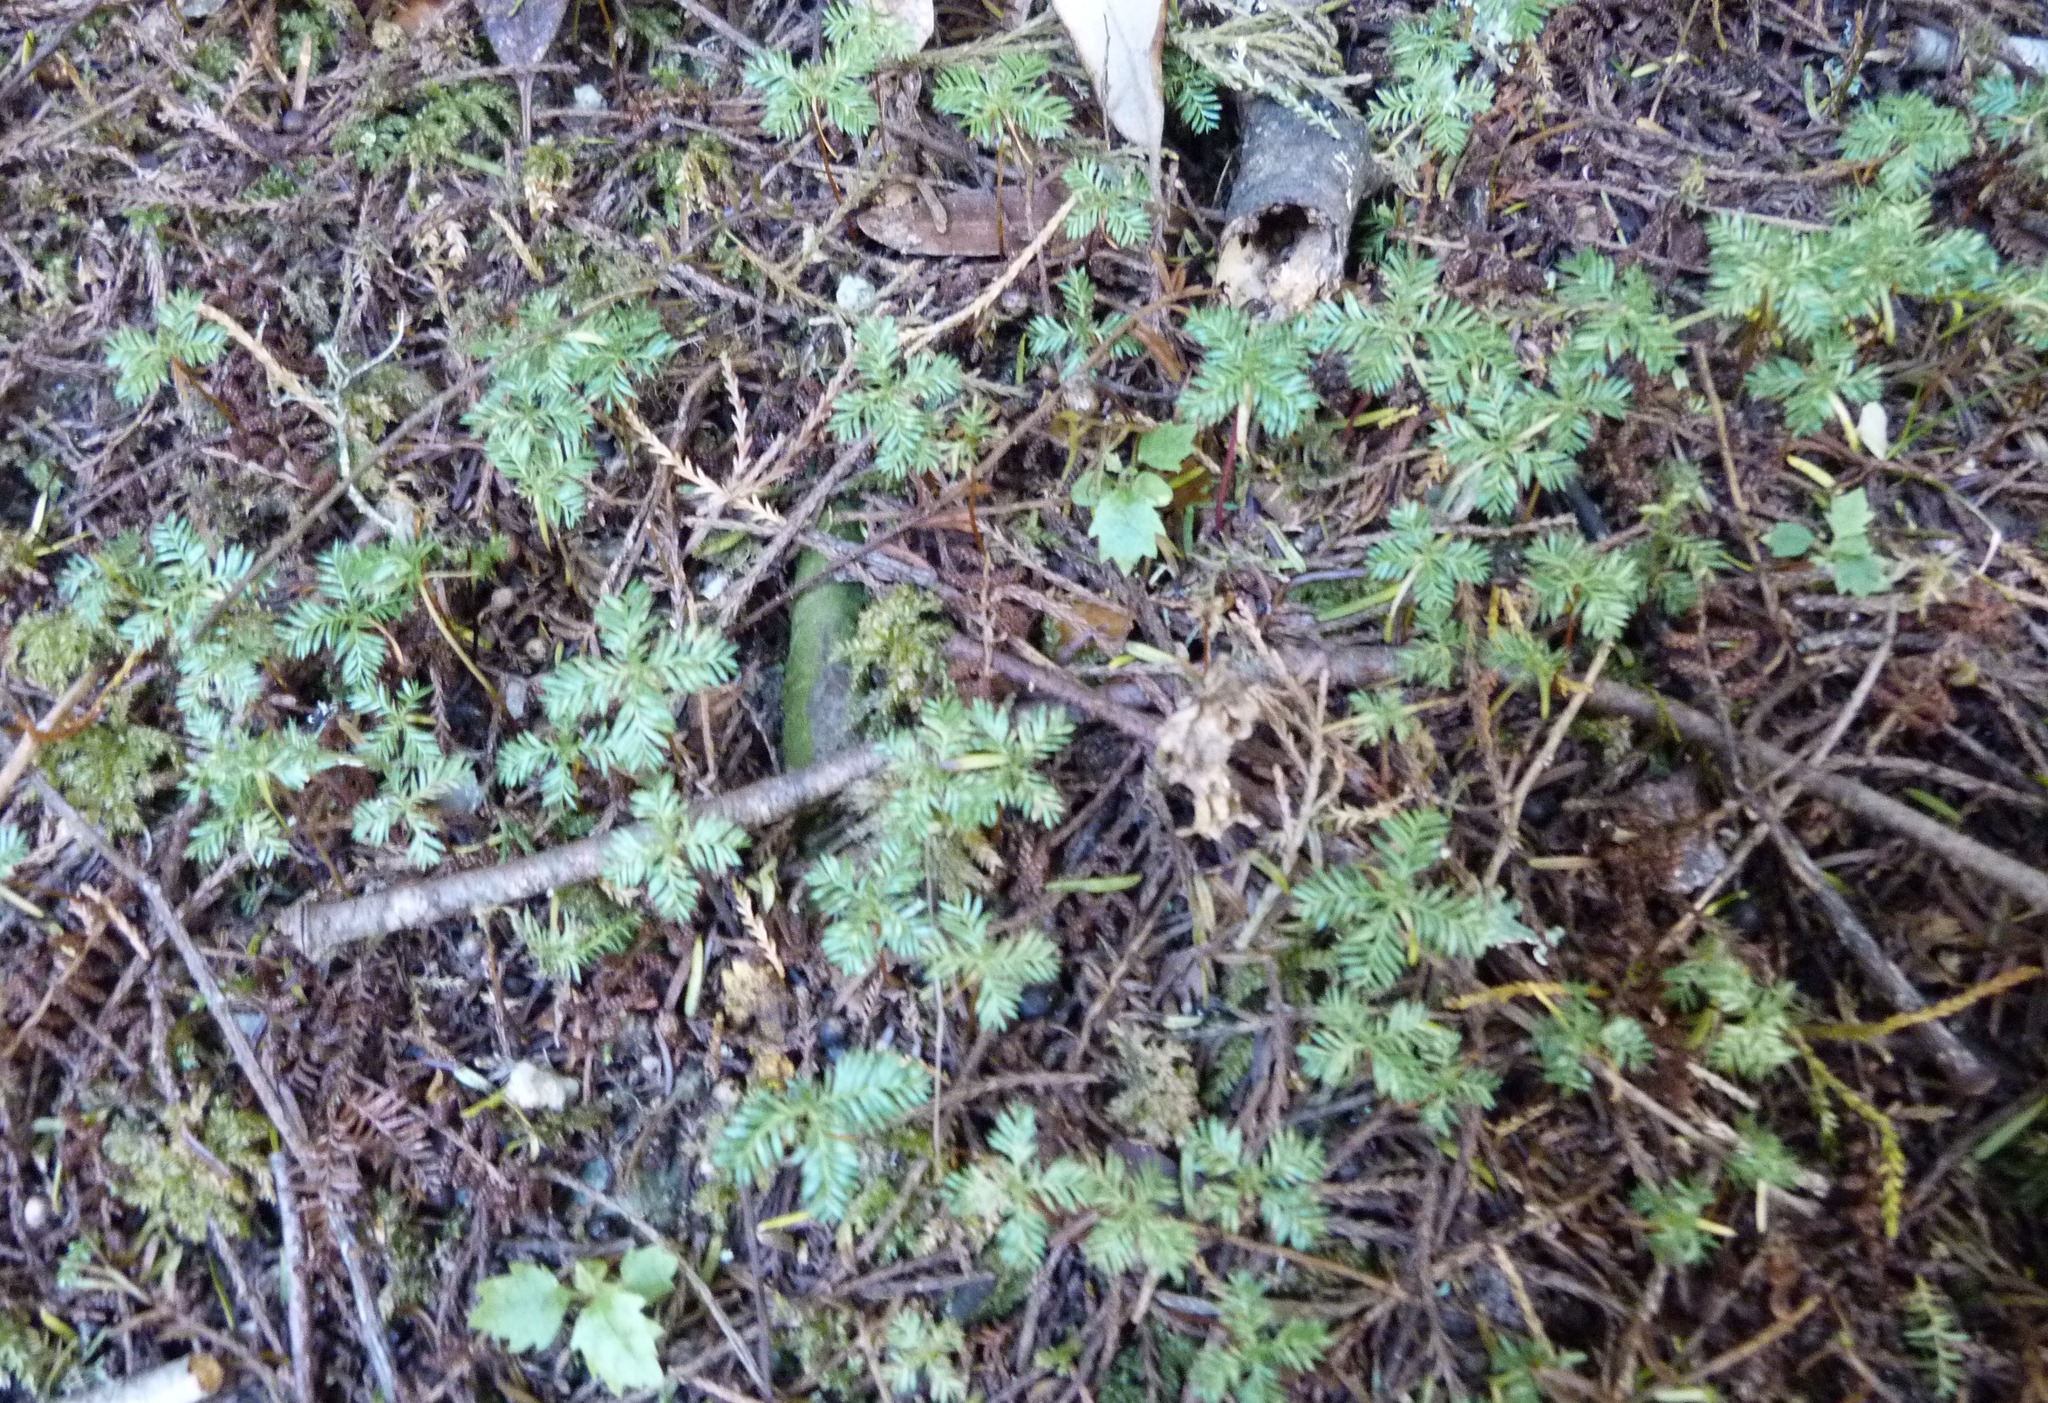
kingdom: Plantae
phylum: Tracheophyta
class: Pinopsida
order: Pinales
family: Podocarpaceae
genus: Dacrycarpus
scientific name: Dacrycarpus dacrydioides
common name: White pine
